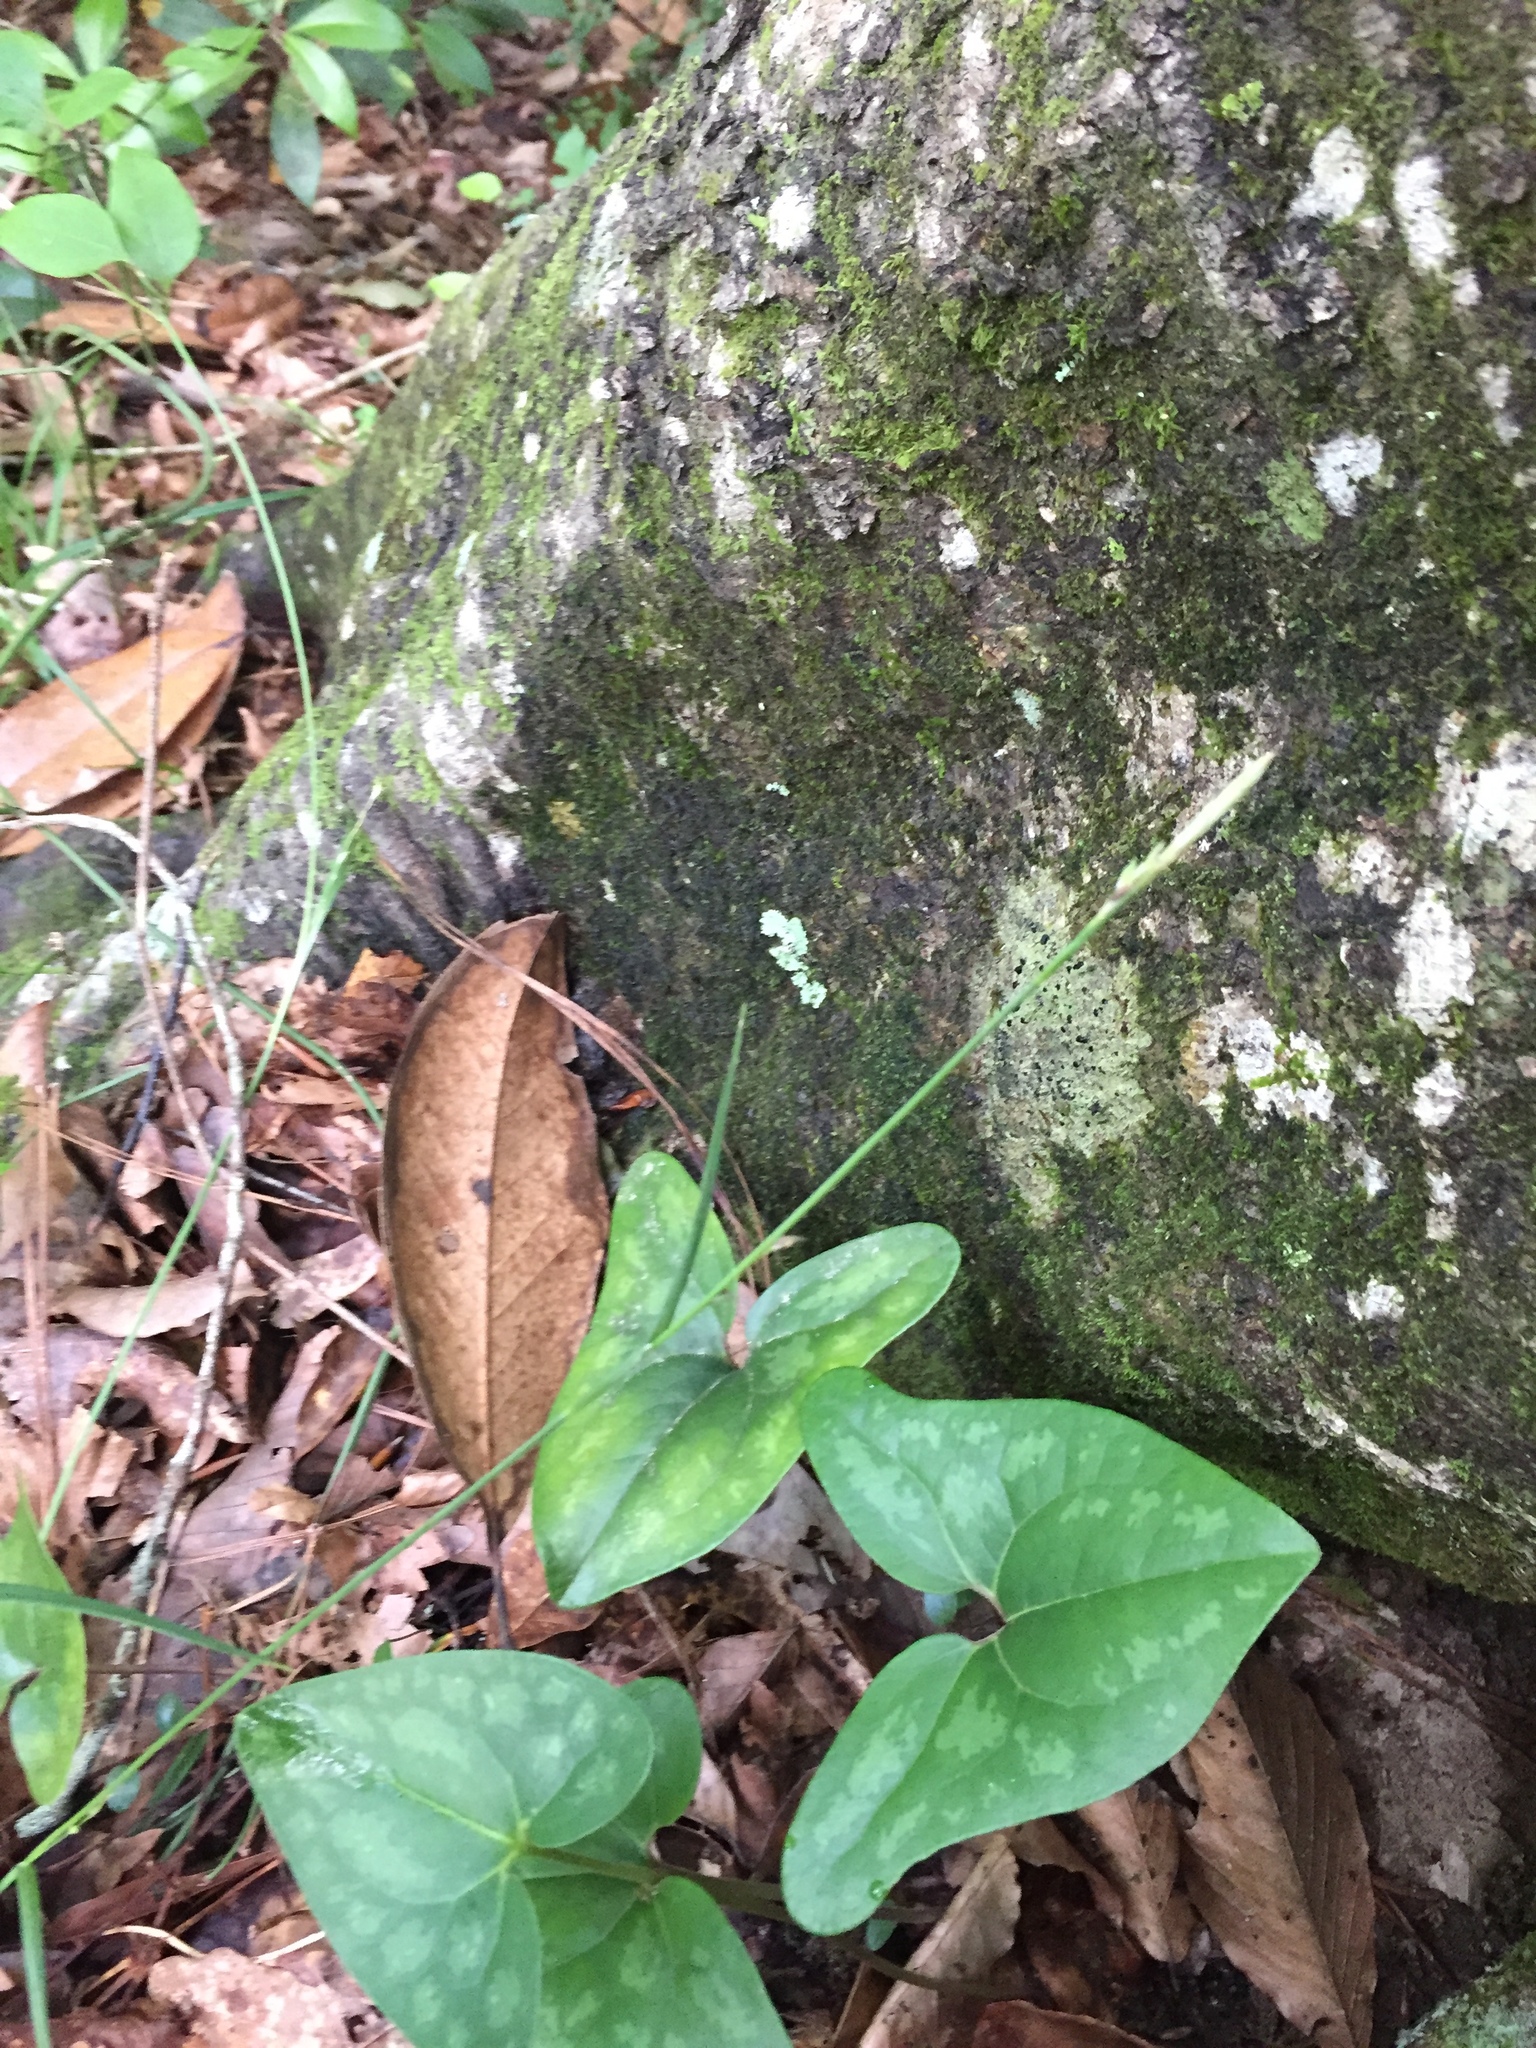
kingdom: Plantae
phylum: Tracheophyta
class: Liliopsida
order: Poales
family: Cyperaceae
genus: Carex
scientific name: Carex ignota
